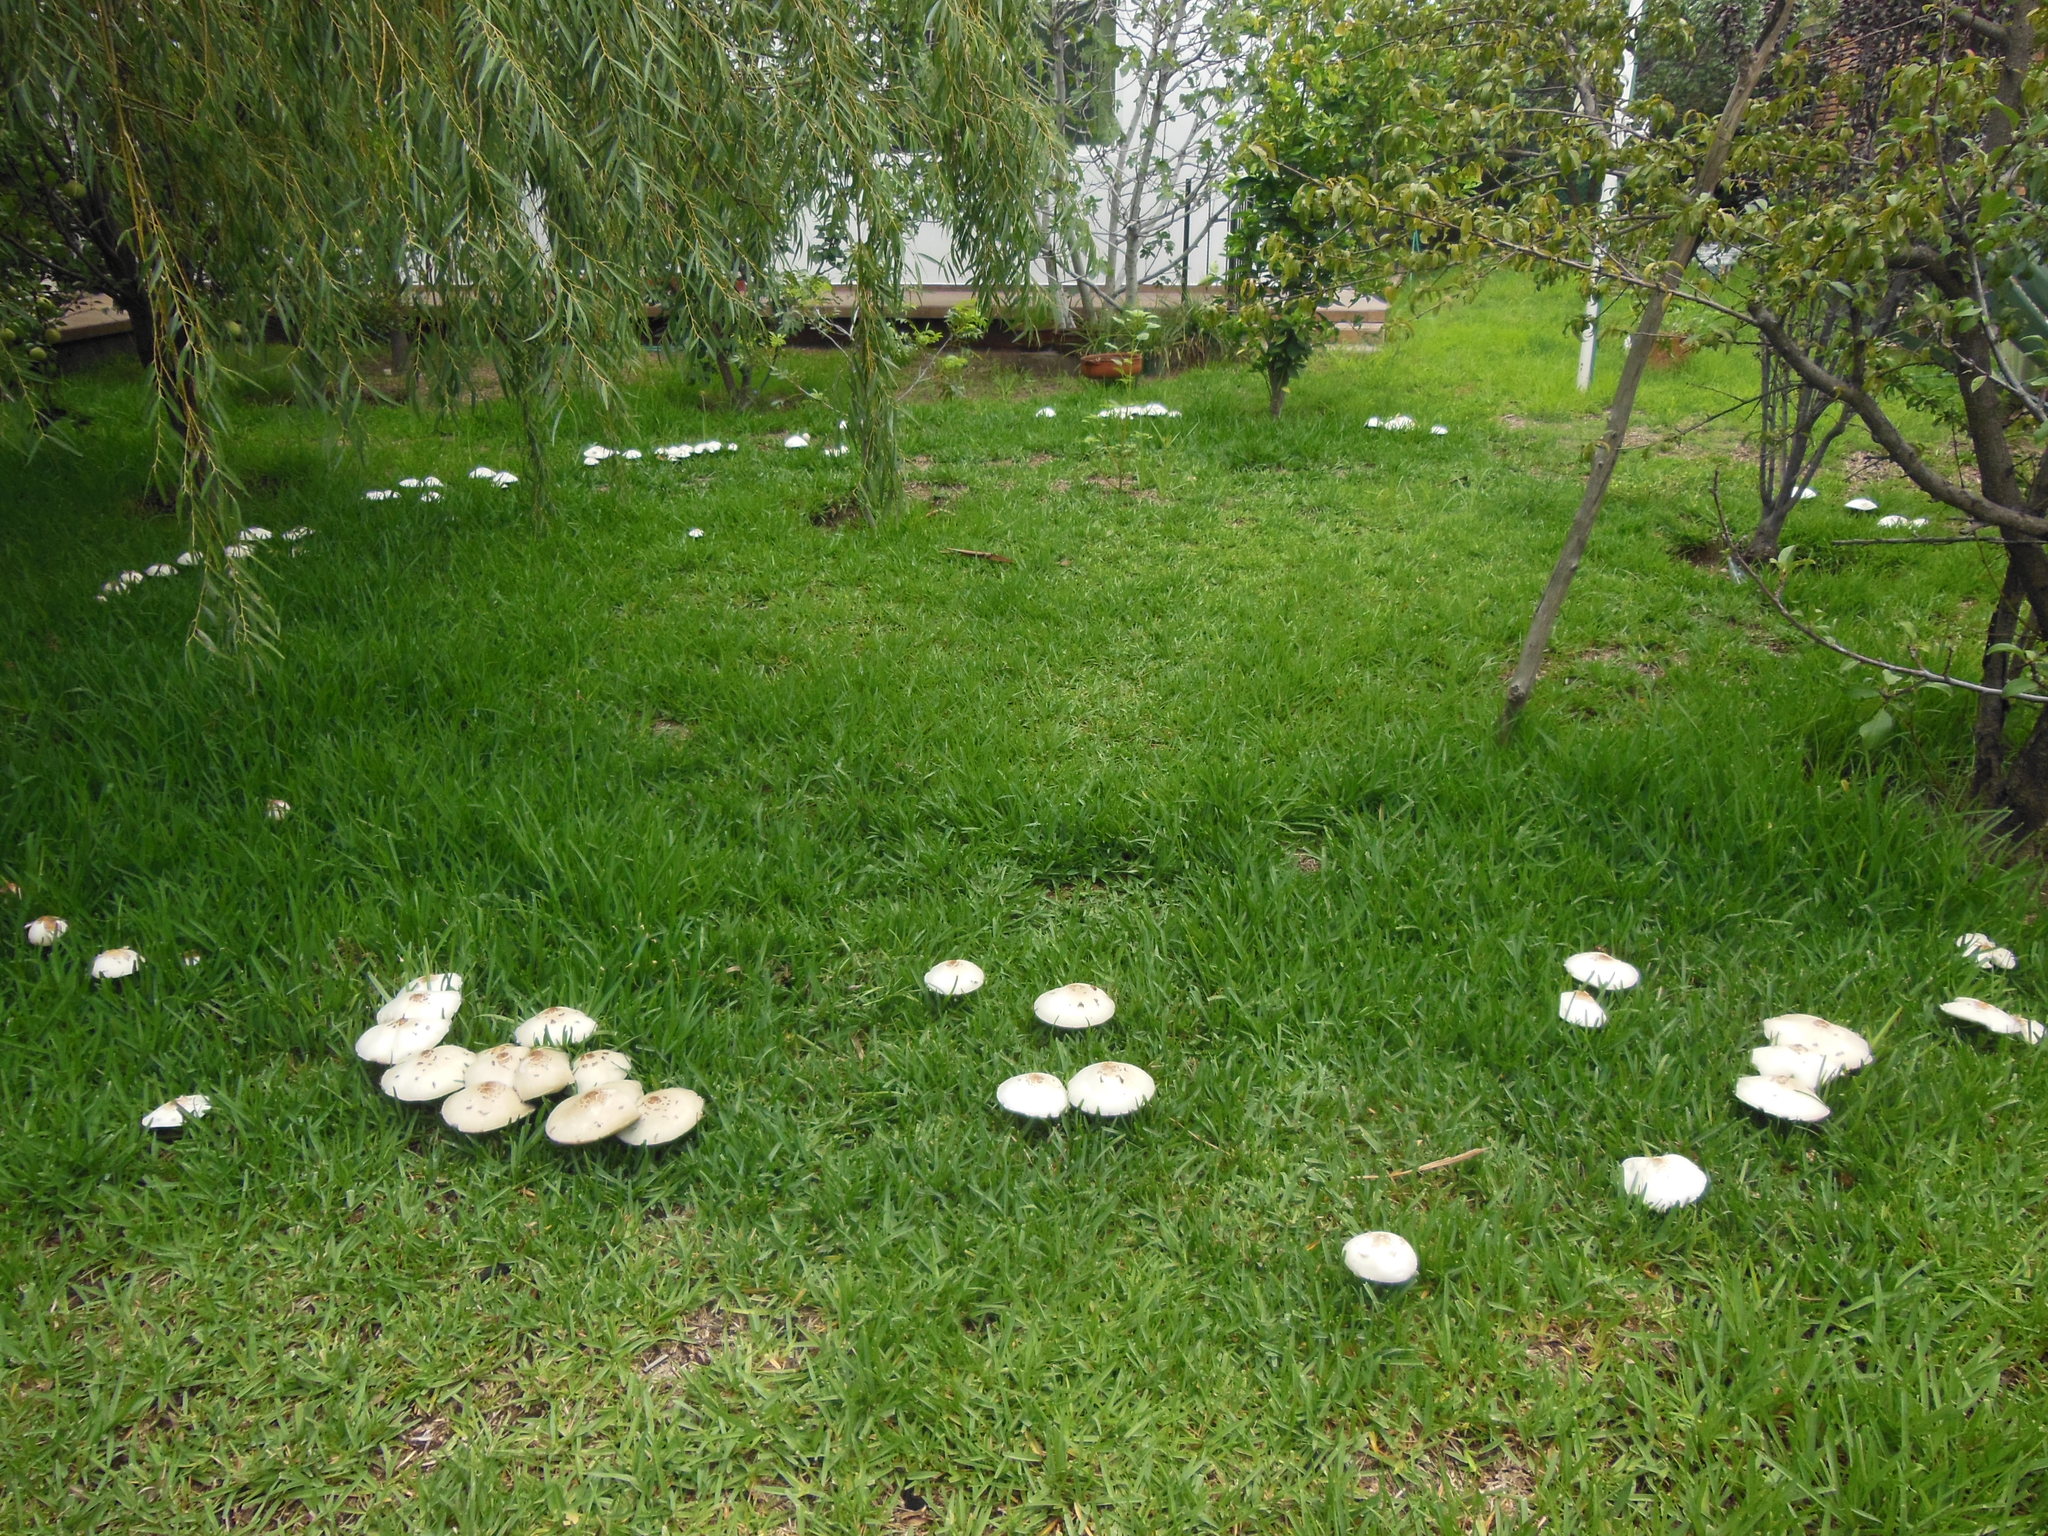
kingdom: Fungi
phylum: Basidiomycota
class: Agaricomycetes
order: Agaricales
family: Agaricaceae
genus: Chlorophyllum
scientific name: Chlorophyllum molybdites
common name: False parasol
